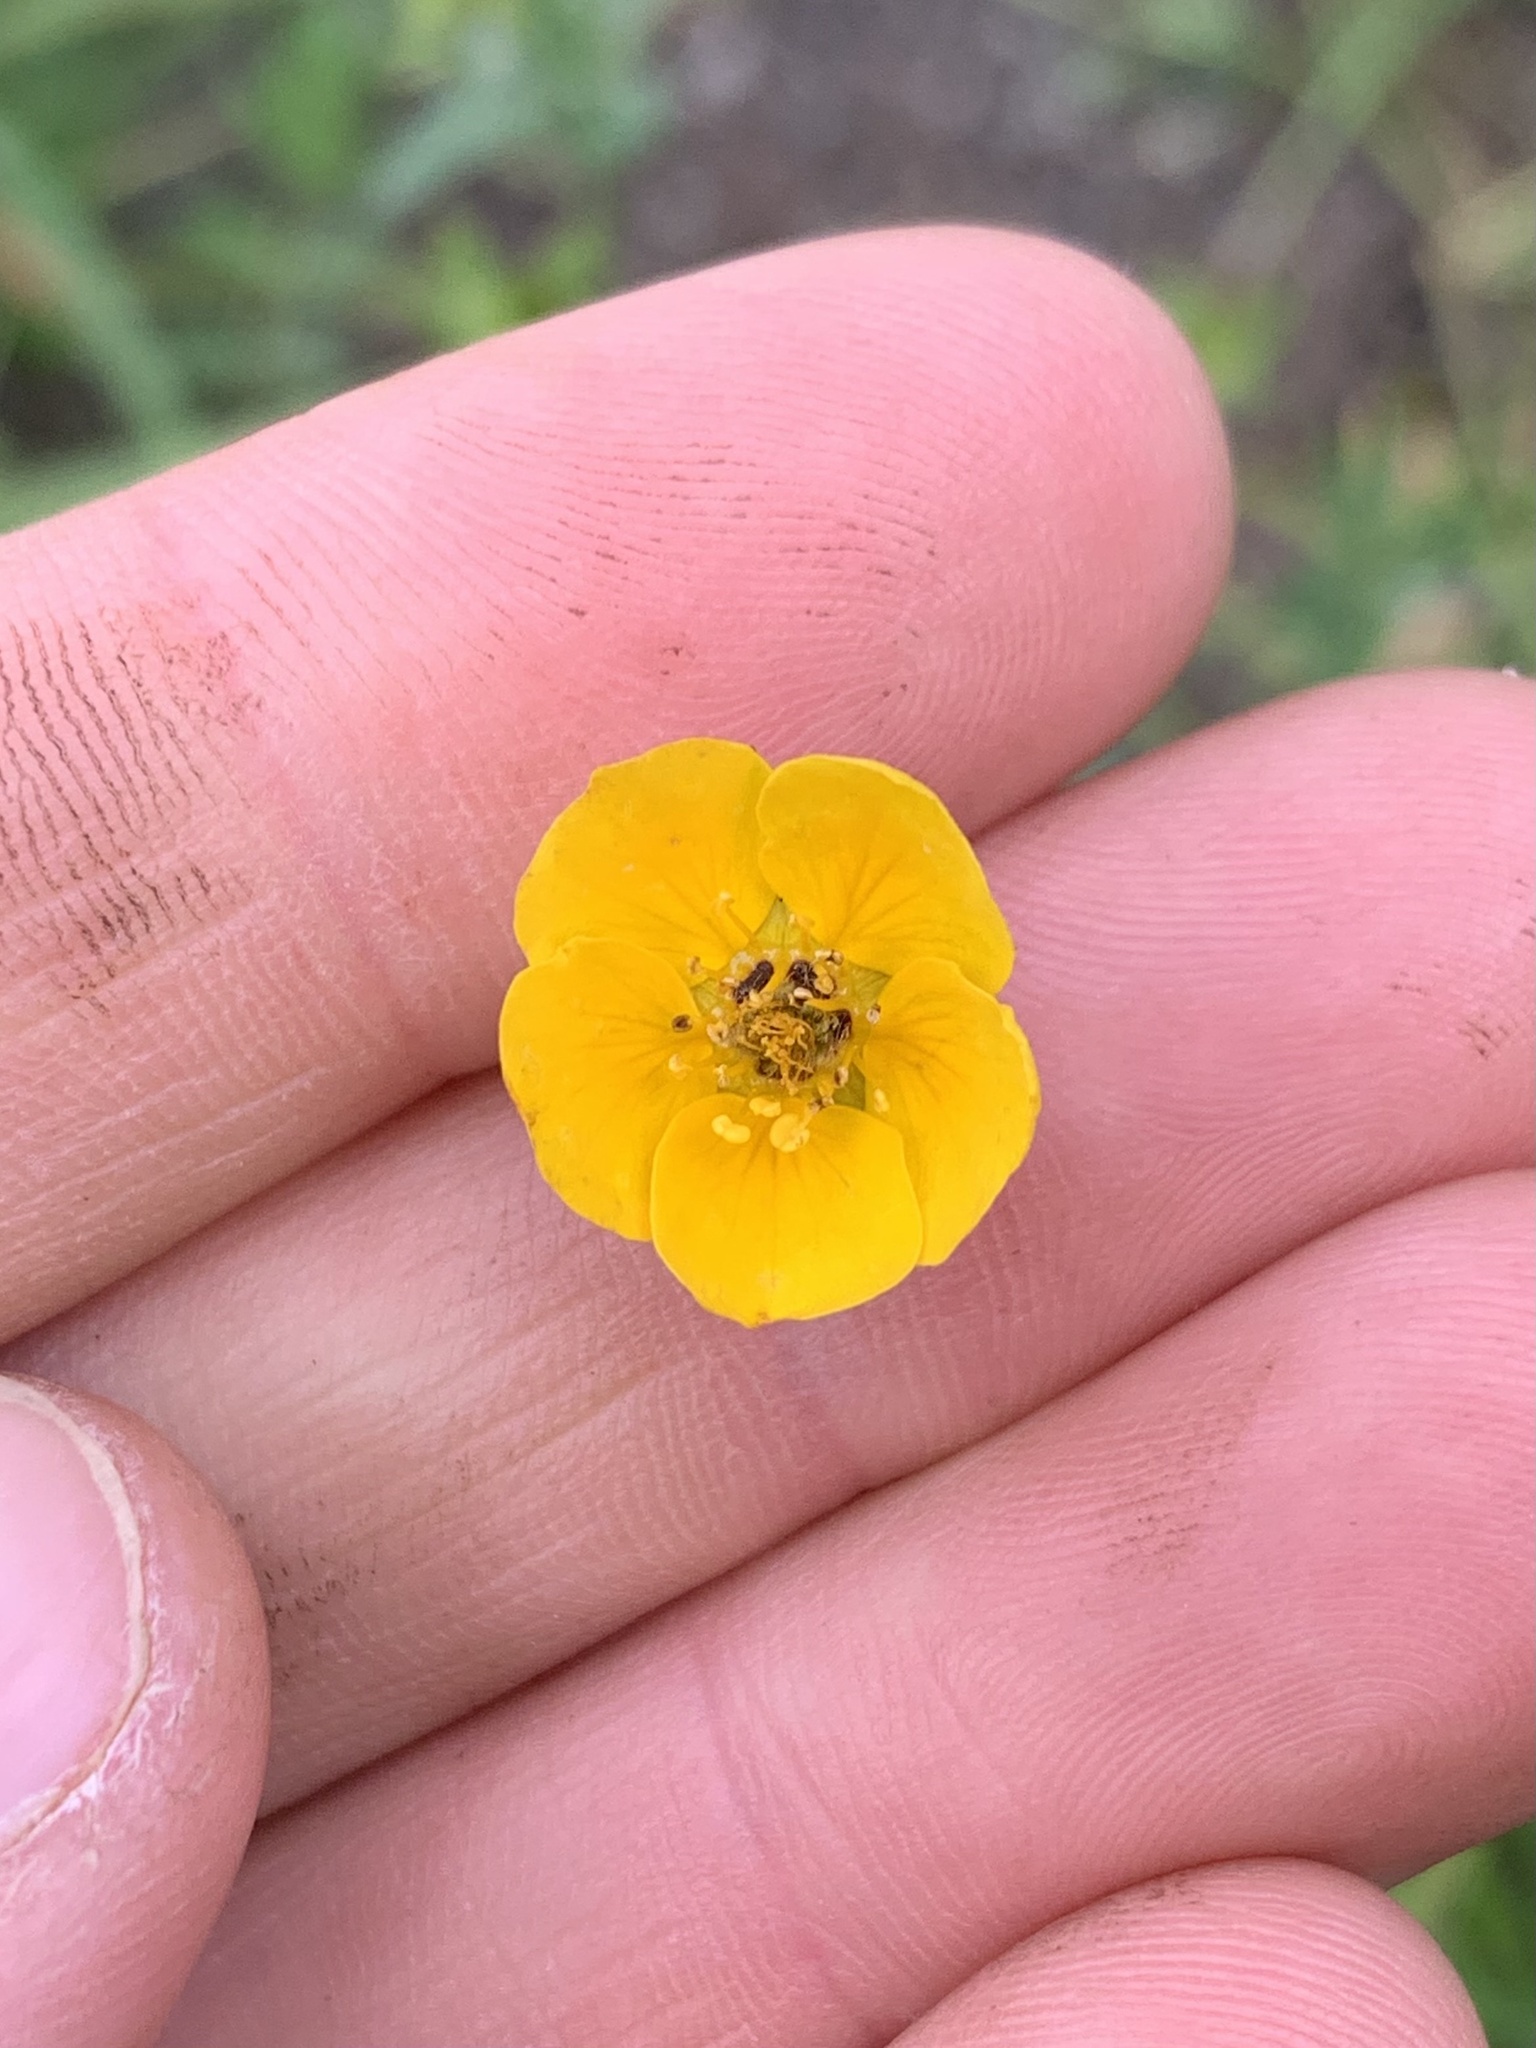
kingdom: Plantae
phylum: Tracheophyta
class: Magnoliopsida
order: Rosales
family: Rosaceae
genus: Potentilla
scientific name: Potentilla versicolor
